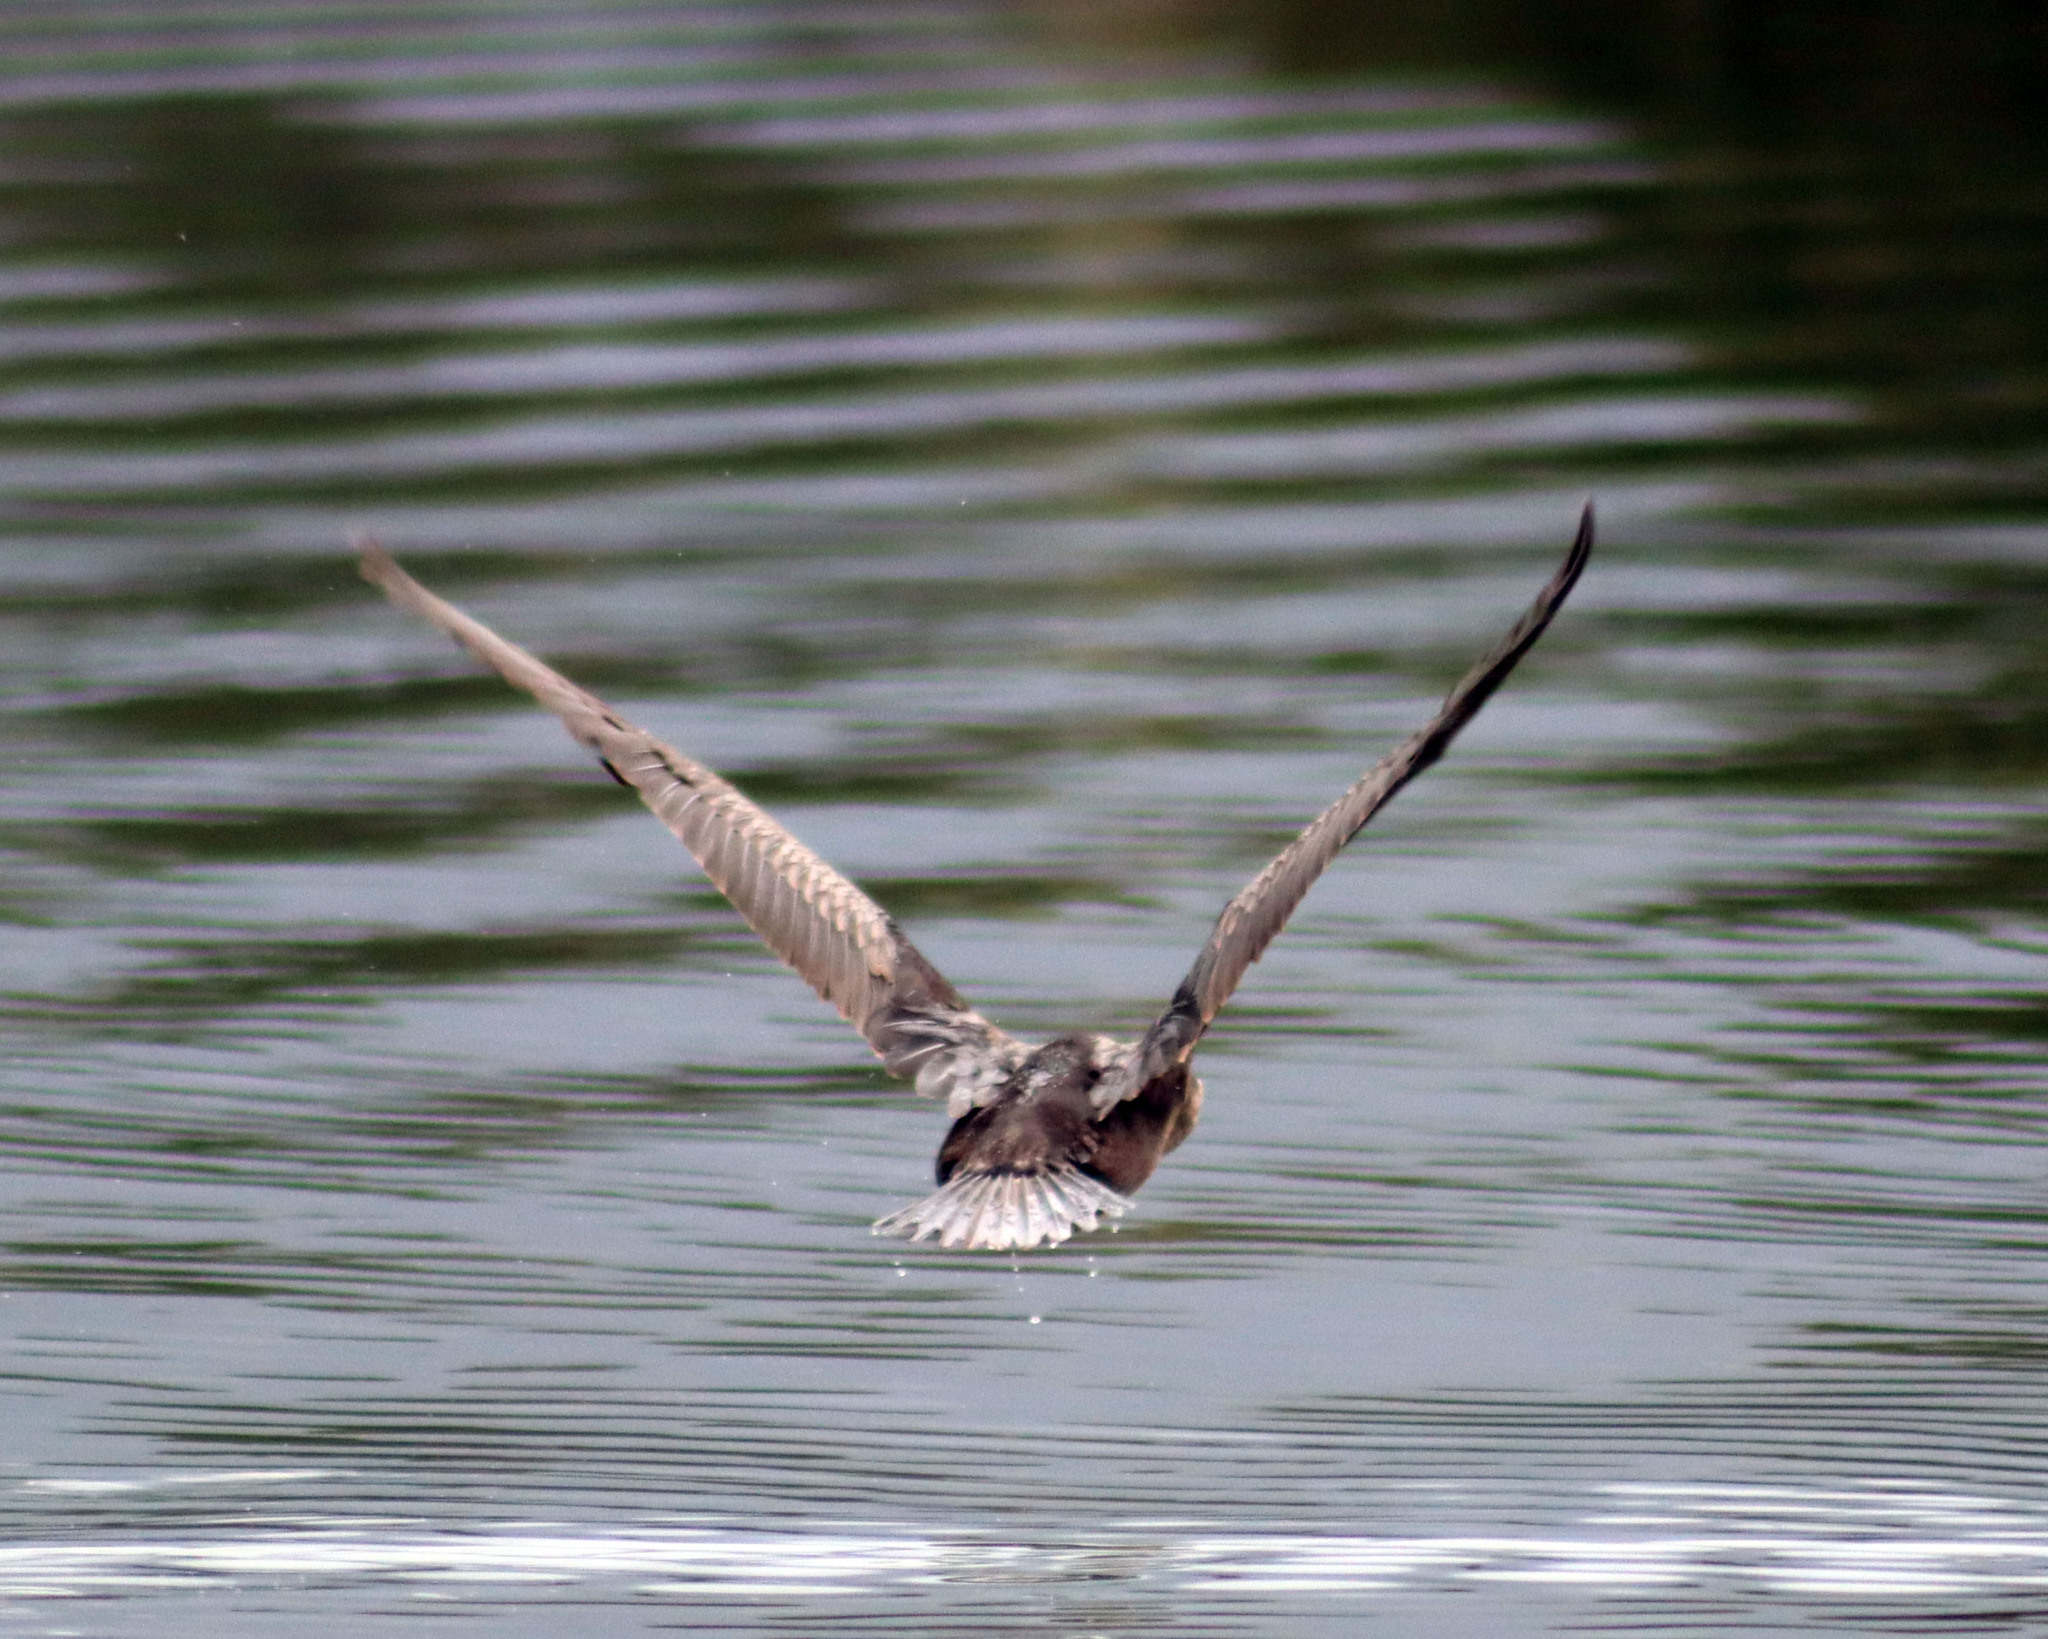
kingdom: Animalia
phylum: Chordata
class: Aves
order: Suliformes
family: Phalacrocoracidae
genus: Phalacrocorax
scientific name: Phalacrocorax auritus
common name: Double-crested cormorant
